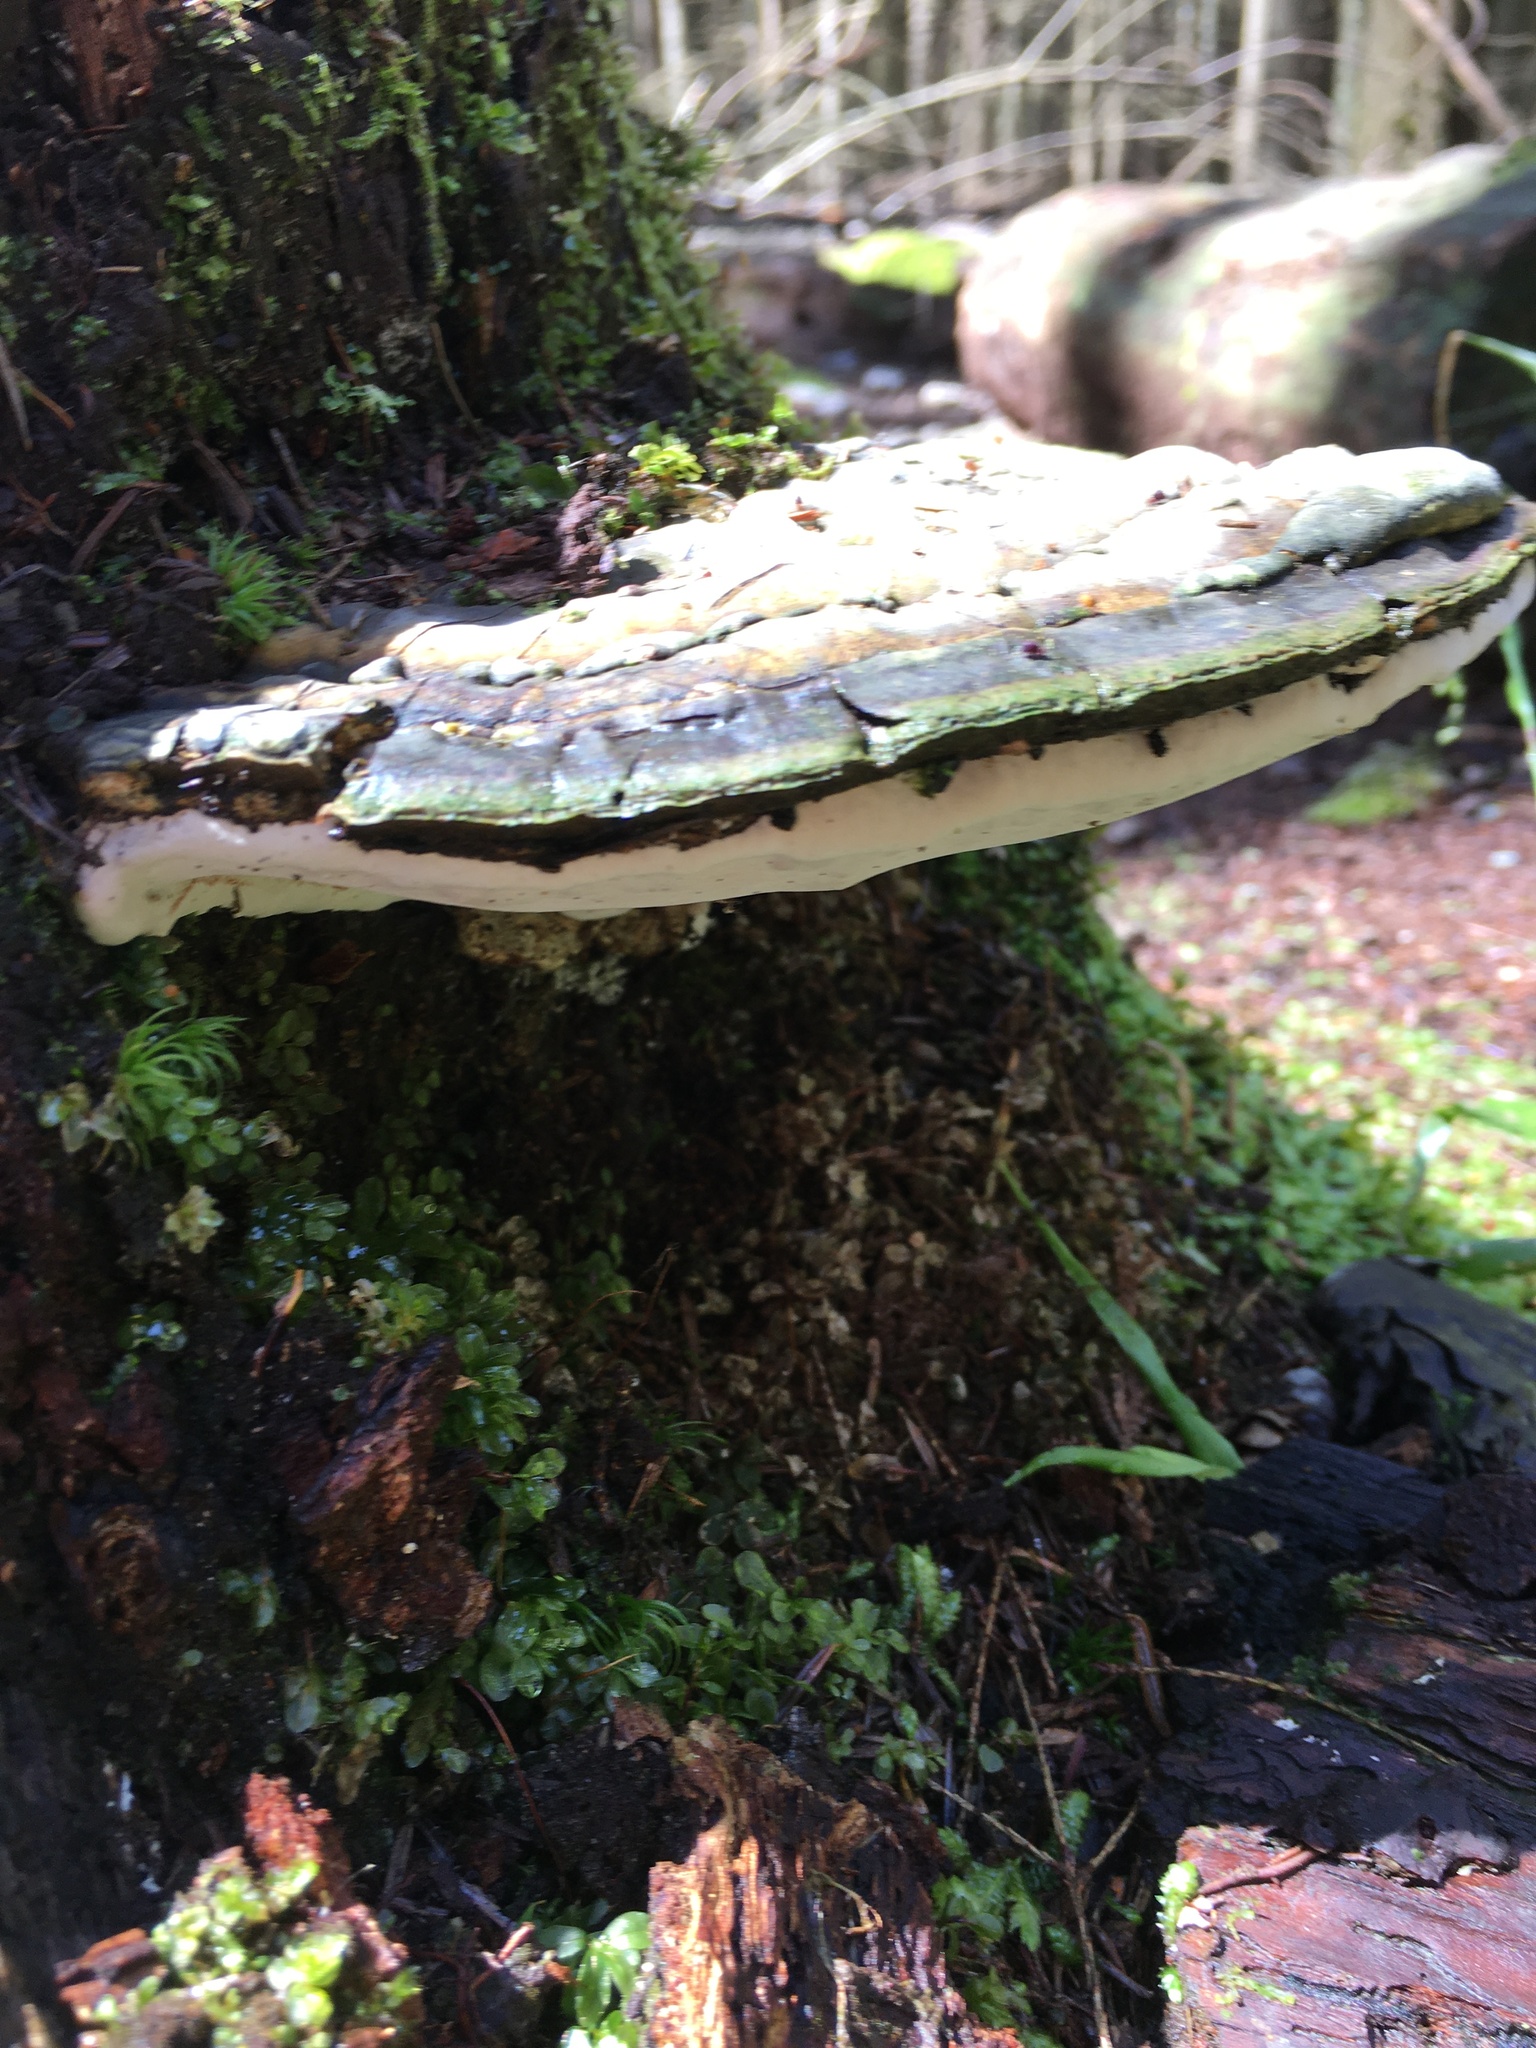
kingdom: Fungi
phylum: Basidiomycota
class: Agaricomycetes
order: Polyporales
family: Fomitopsidaceae
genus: Fomitopsis
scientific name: Fomitopsis ochracea
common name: American brown fomitopsis
